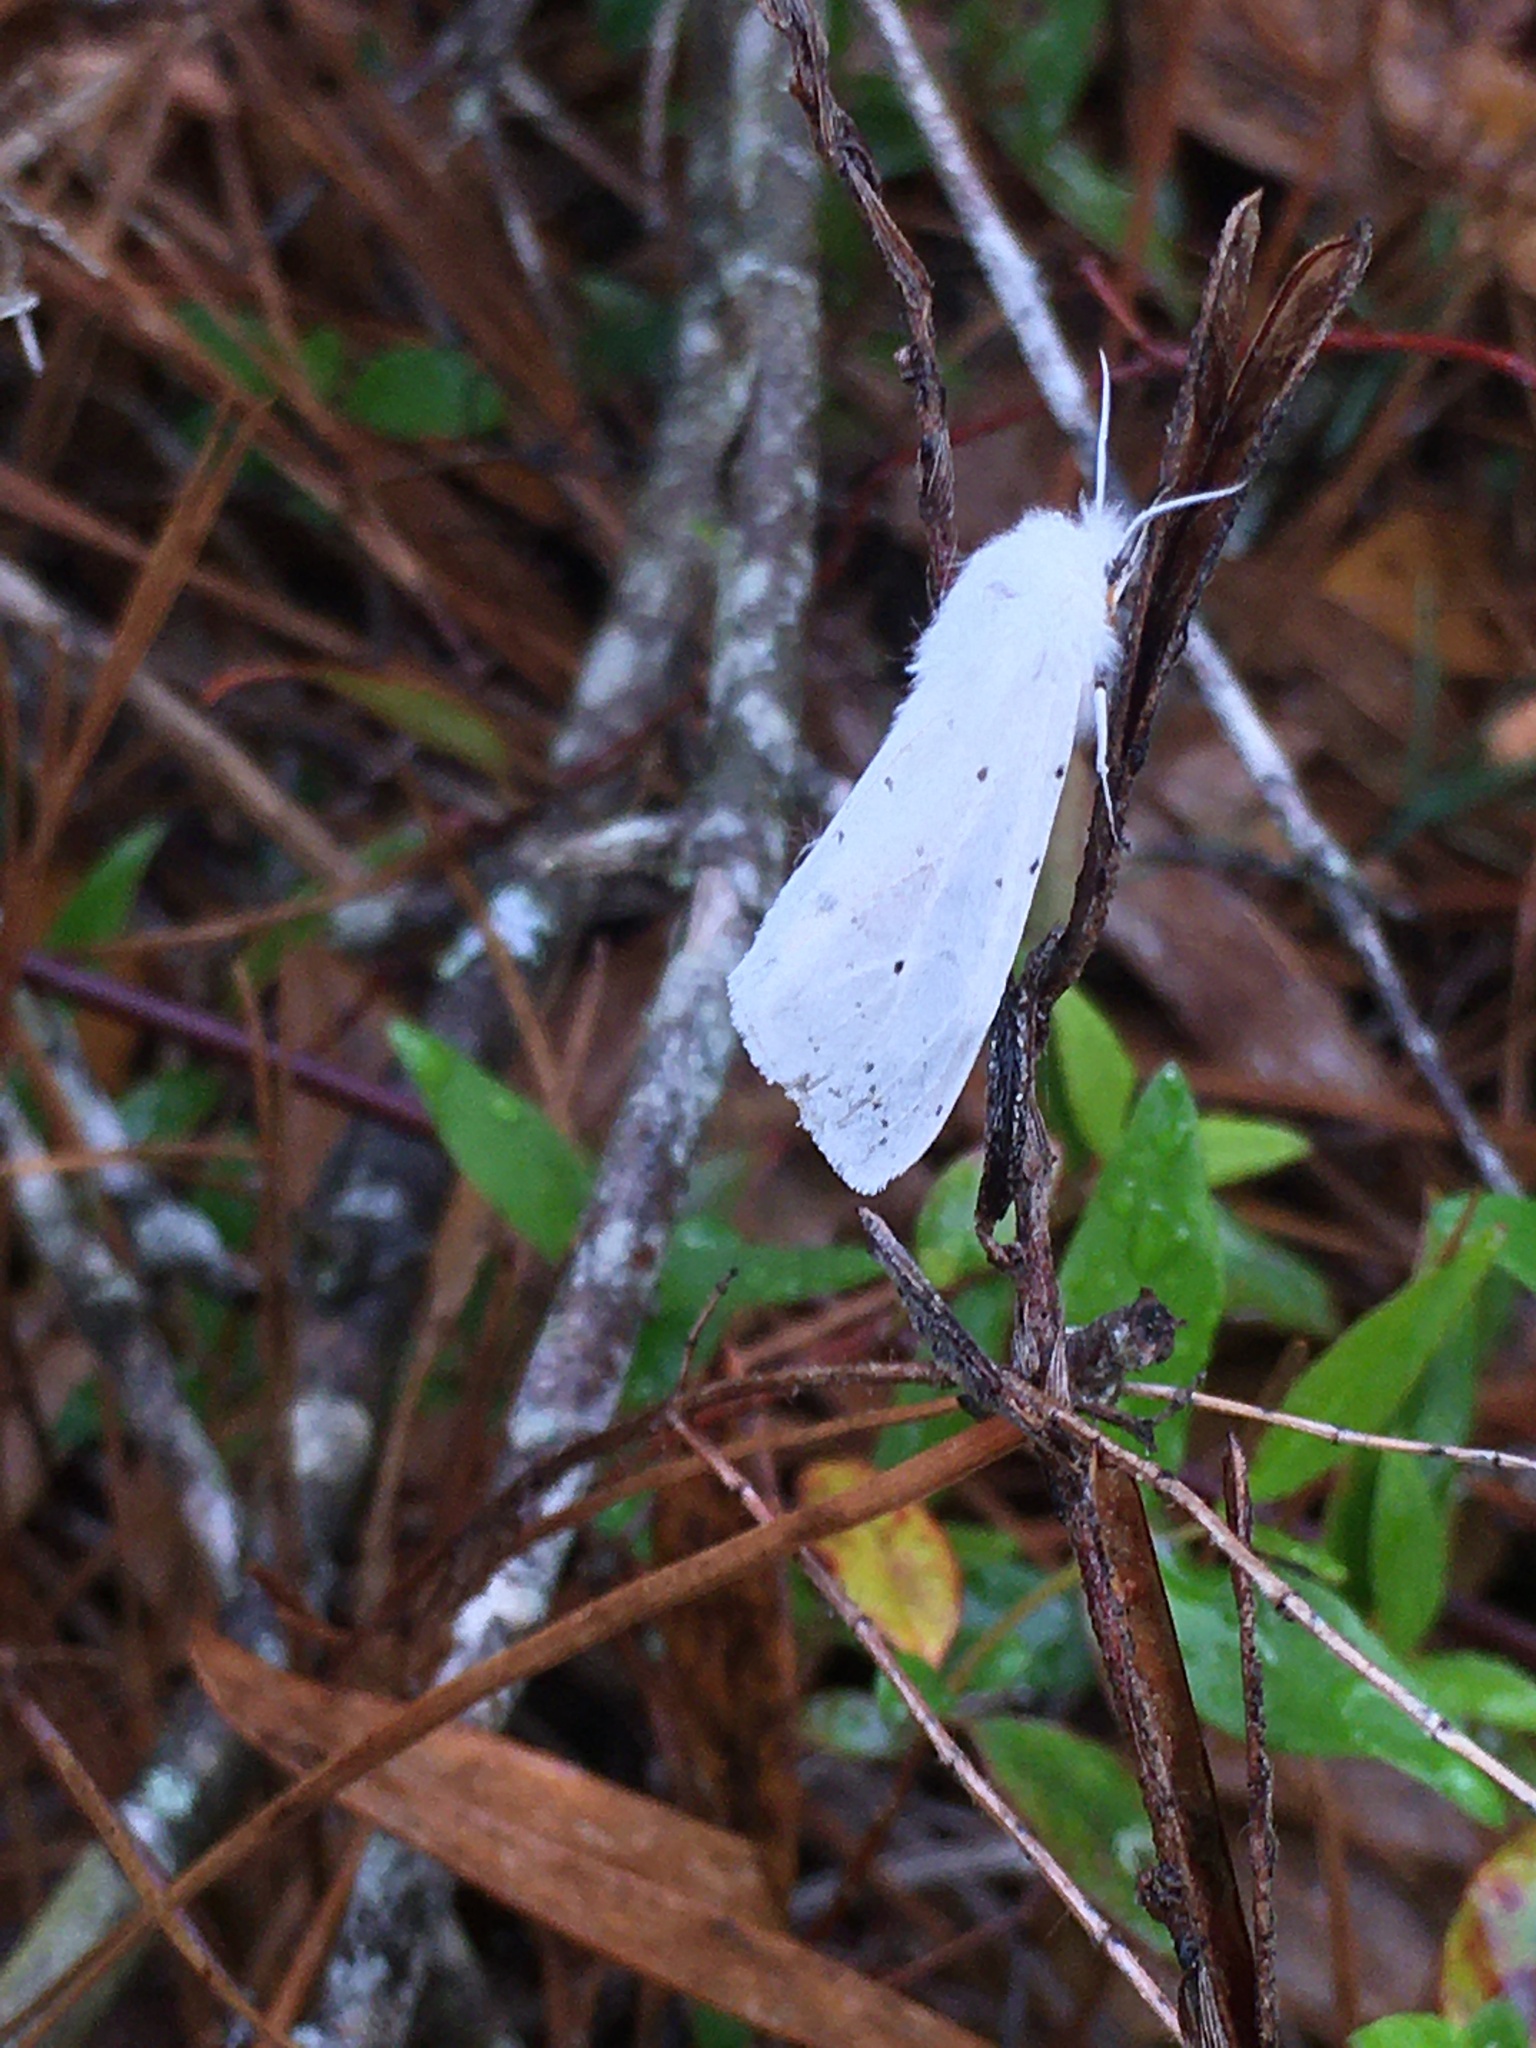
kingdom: Animalia
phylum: Arthropoda
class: Insecta
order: Lepidoptera
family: Erebidae
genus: Spilosoma
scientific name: Spilosoma dubia
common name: Dubious tiger moth
